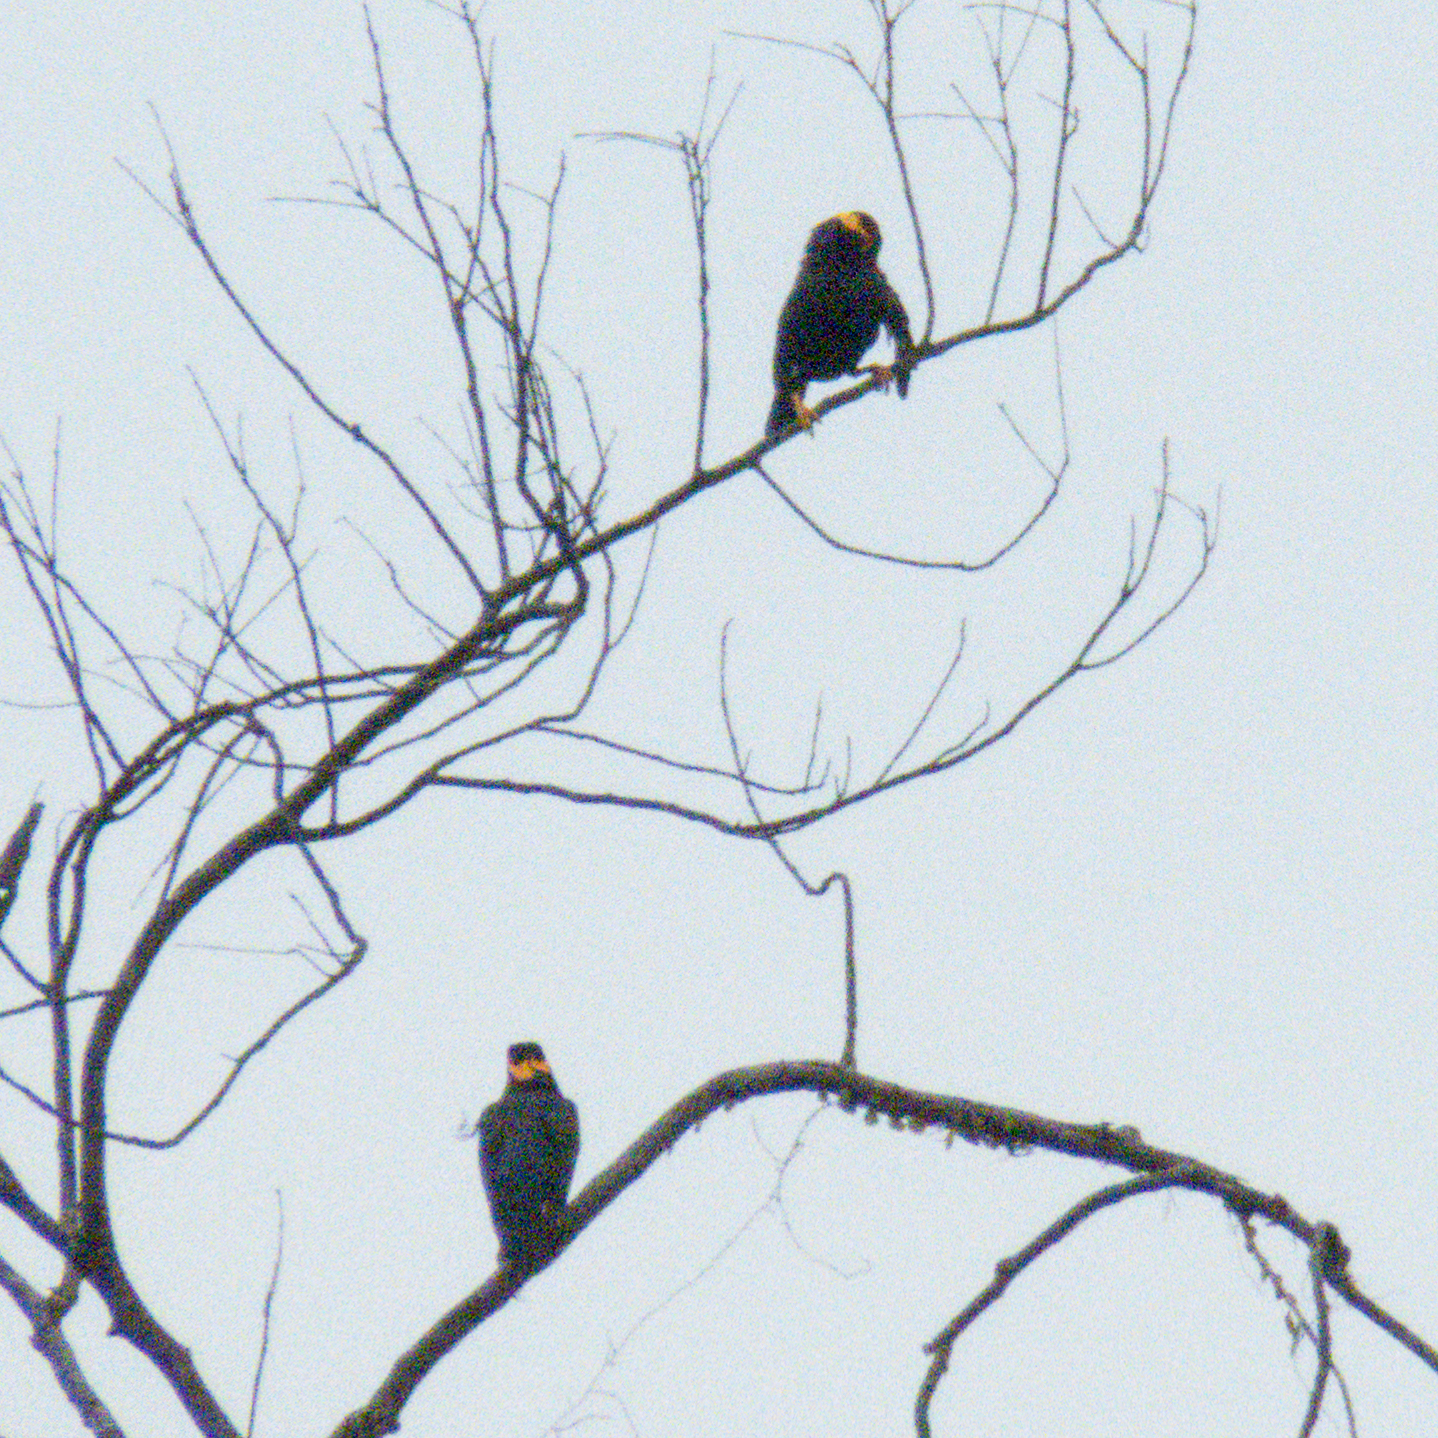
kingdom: Animalia
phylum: Chordata
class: Aves
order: Passeriformes
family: Sturnidae
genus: Gracula
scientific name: Gracula religiosa
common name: Common hill myna
